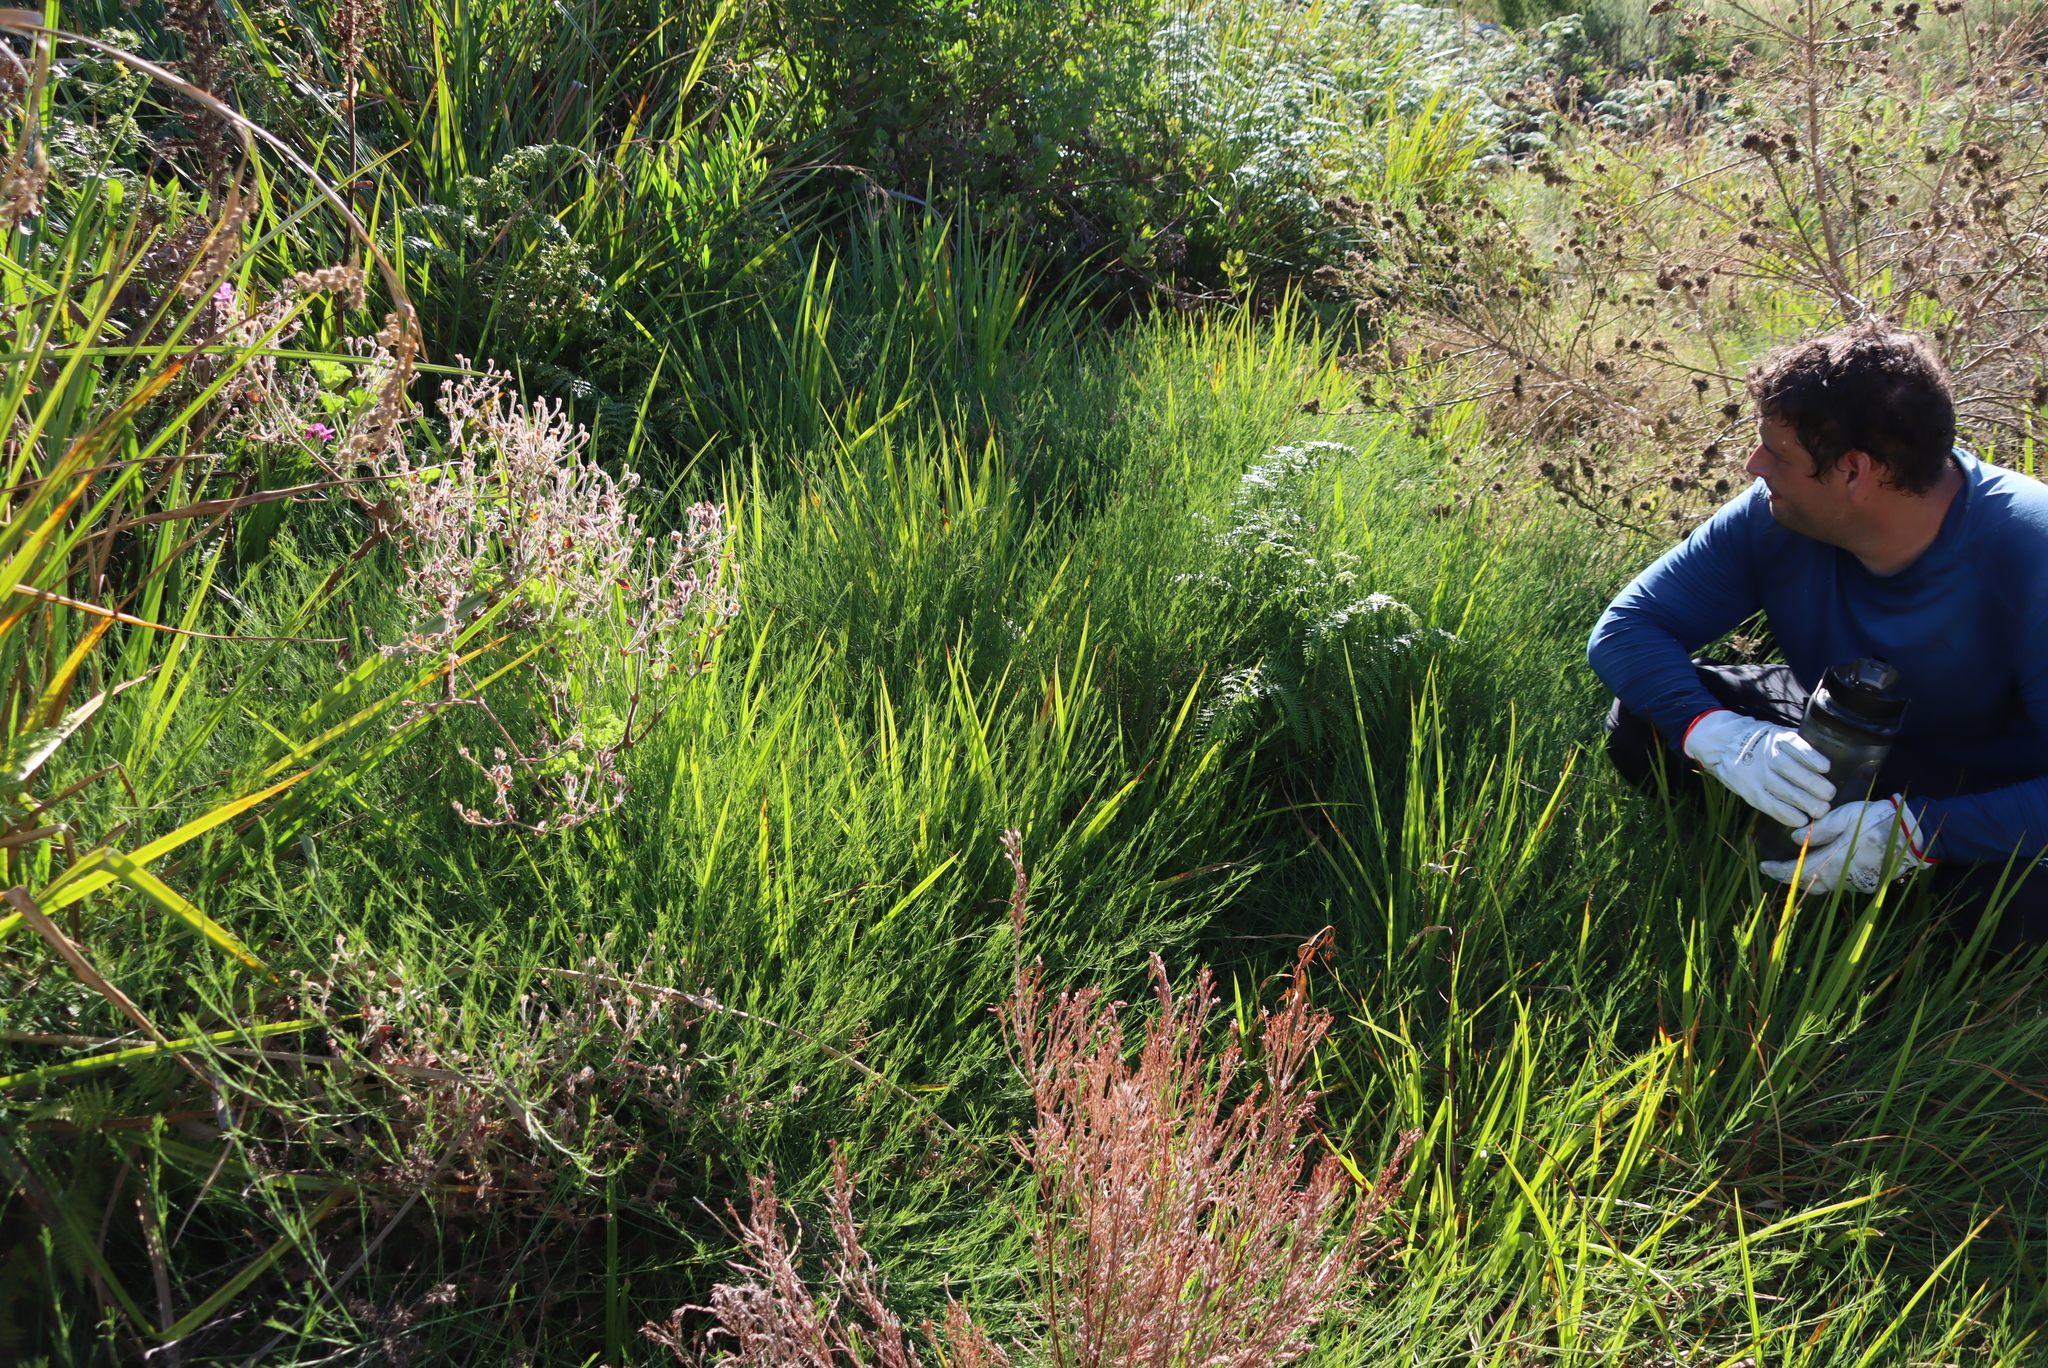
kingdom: Plantae
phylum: Tracheophyta
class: Magnoliopsida
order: Fabales
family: Fabaceae
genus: Psoralea
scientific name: Psoralea fascicularis
